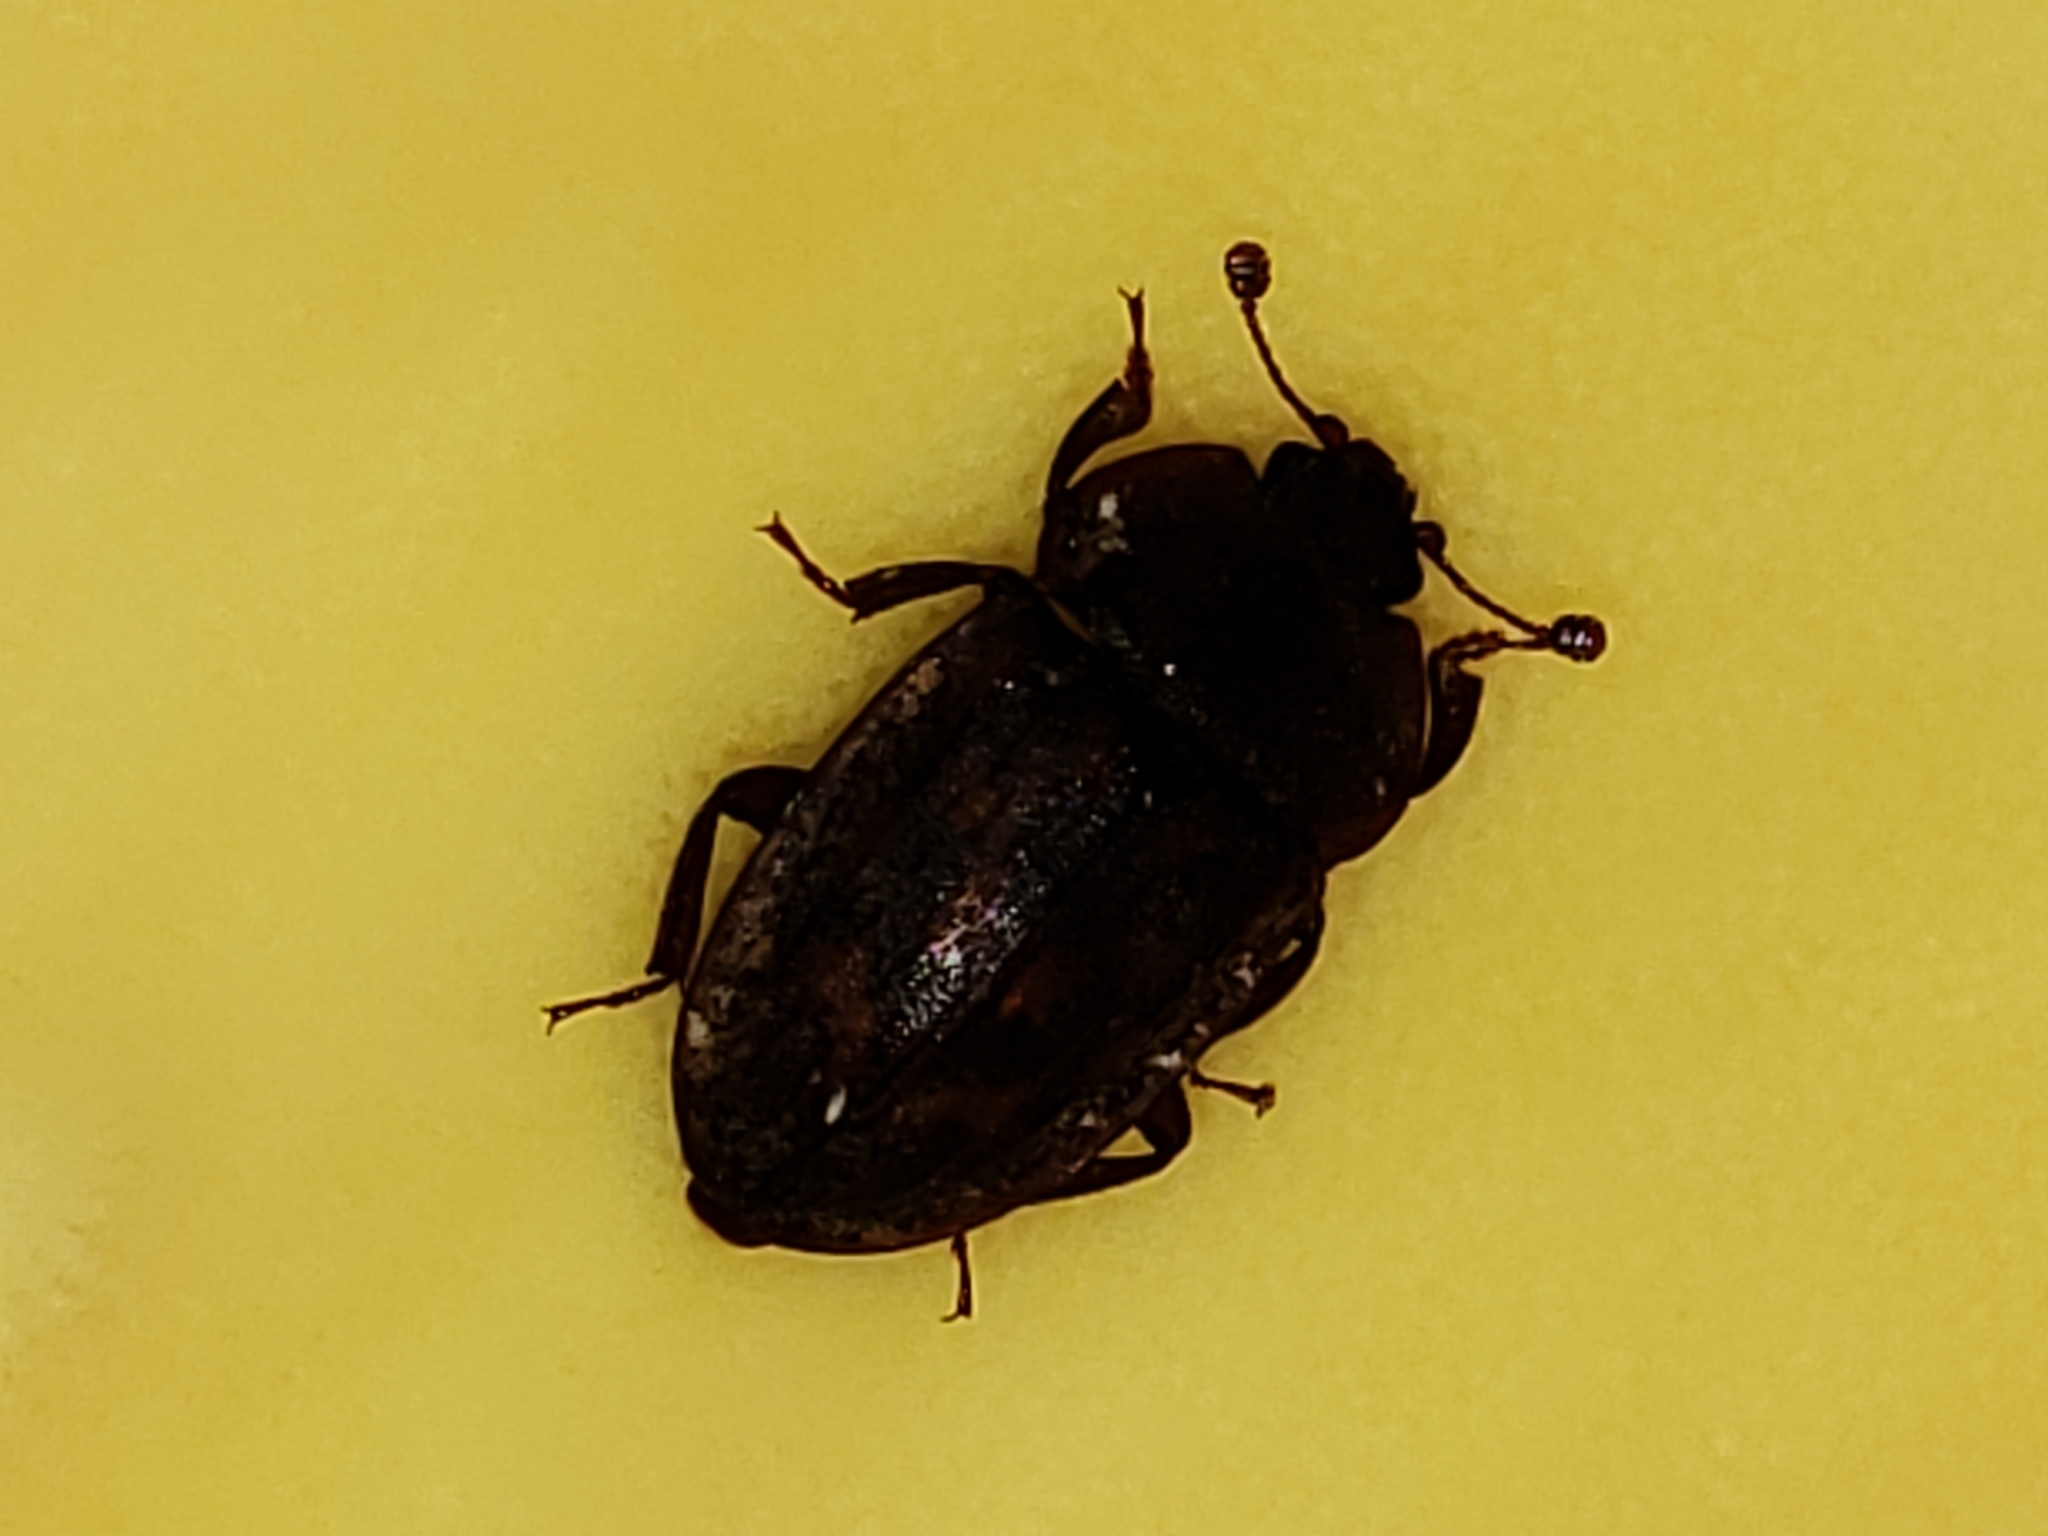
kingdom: Animalia
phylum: Arthropoda
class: Insecta
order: Coleoptera
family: Nitidulidae
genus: Phenolia
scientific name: Phenolia grossa
